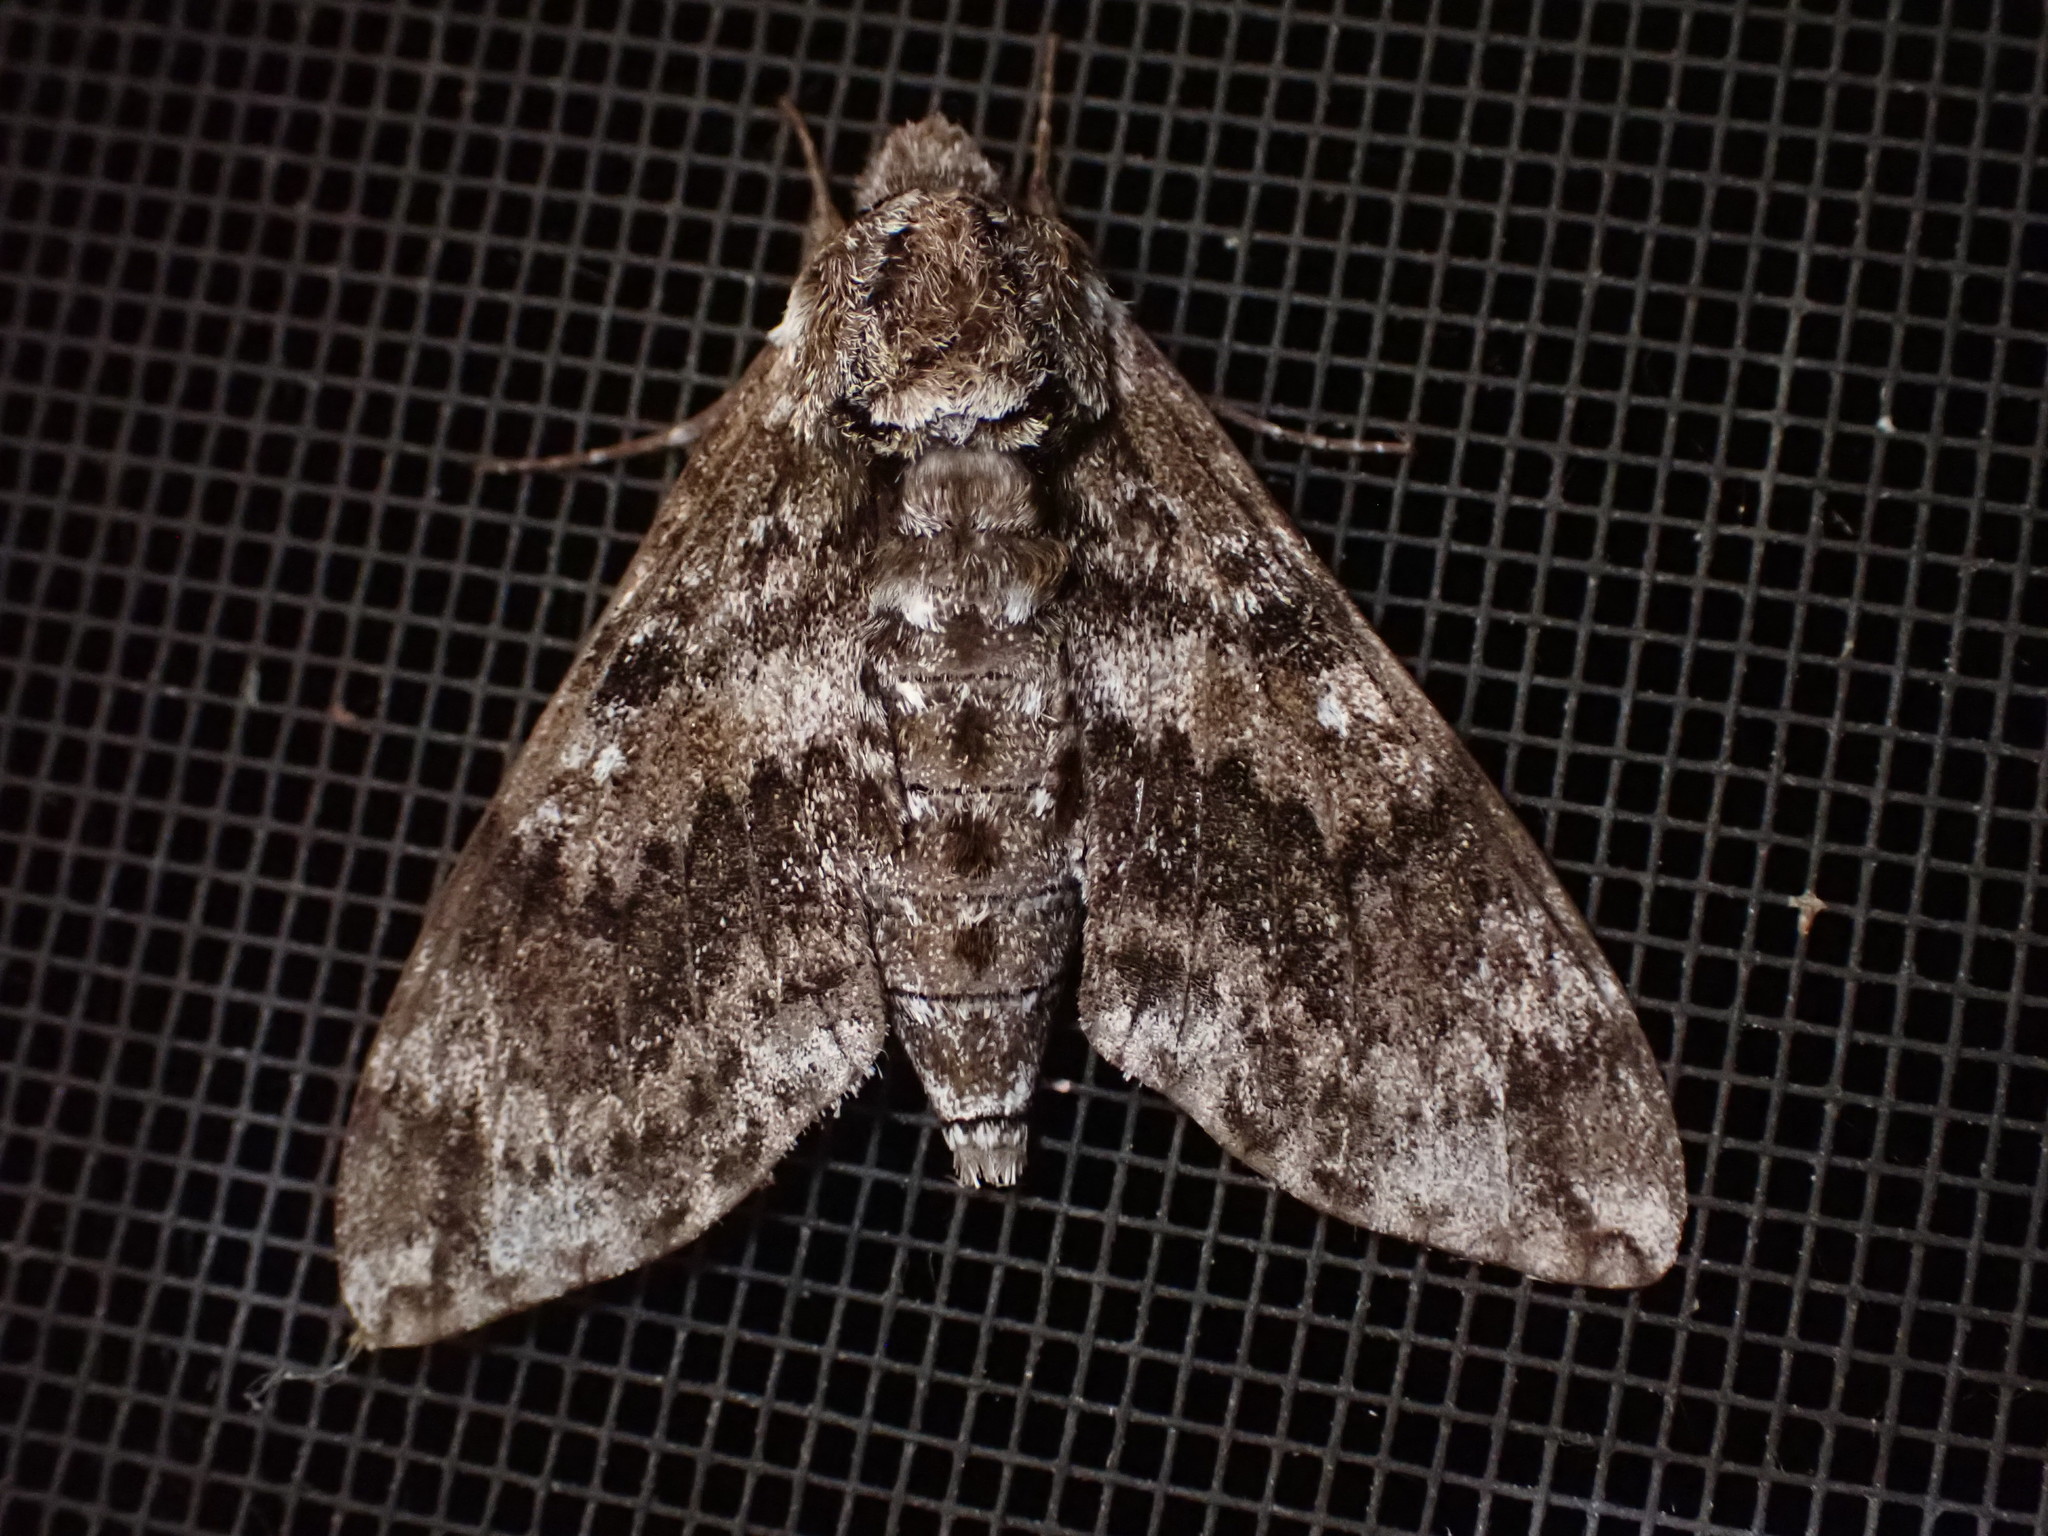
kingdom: Animalia
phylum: Arthropoda
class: Insecta
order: Lepidoptera
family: Sphingidae
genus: Dolba
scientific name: Dolba hyloeus
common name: Pawpaw sphinx
